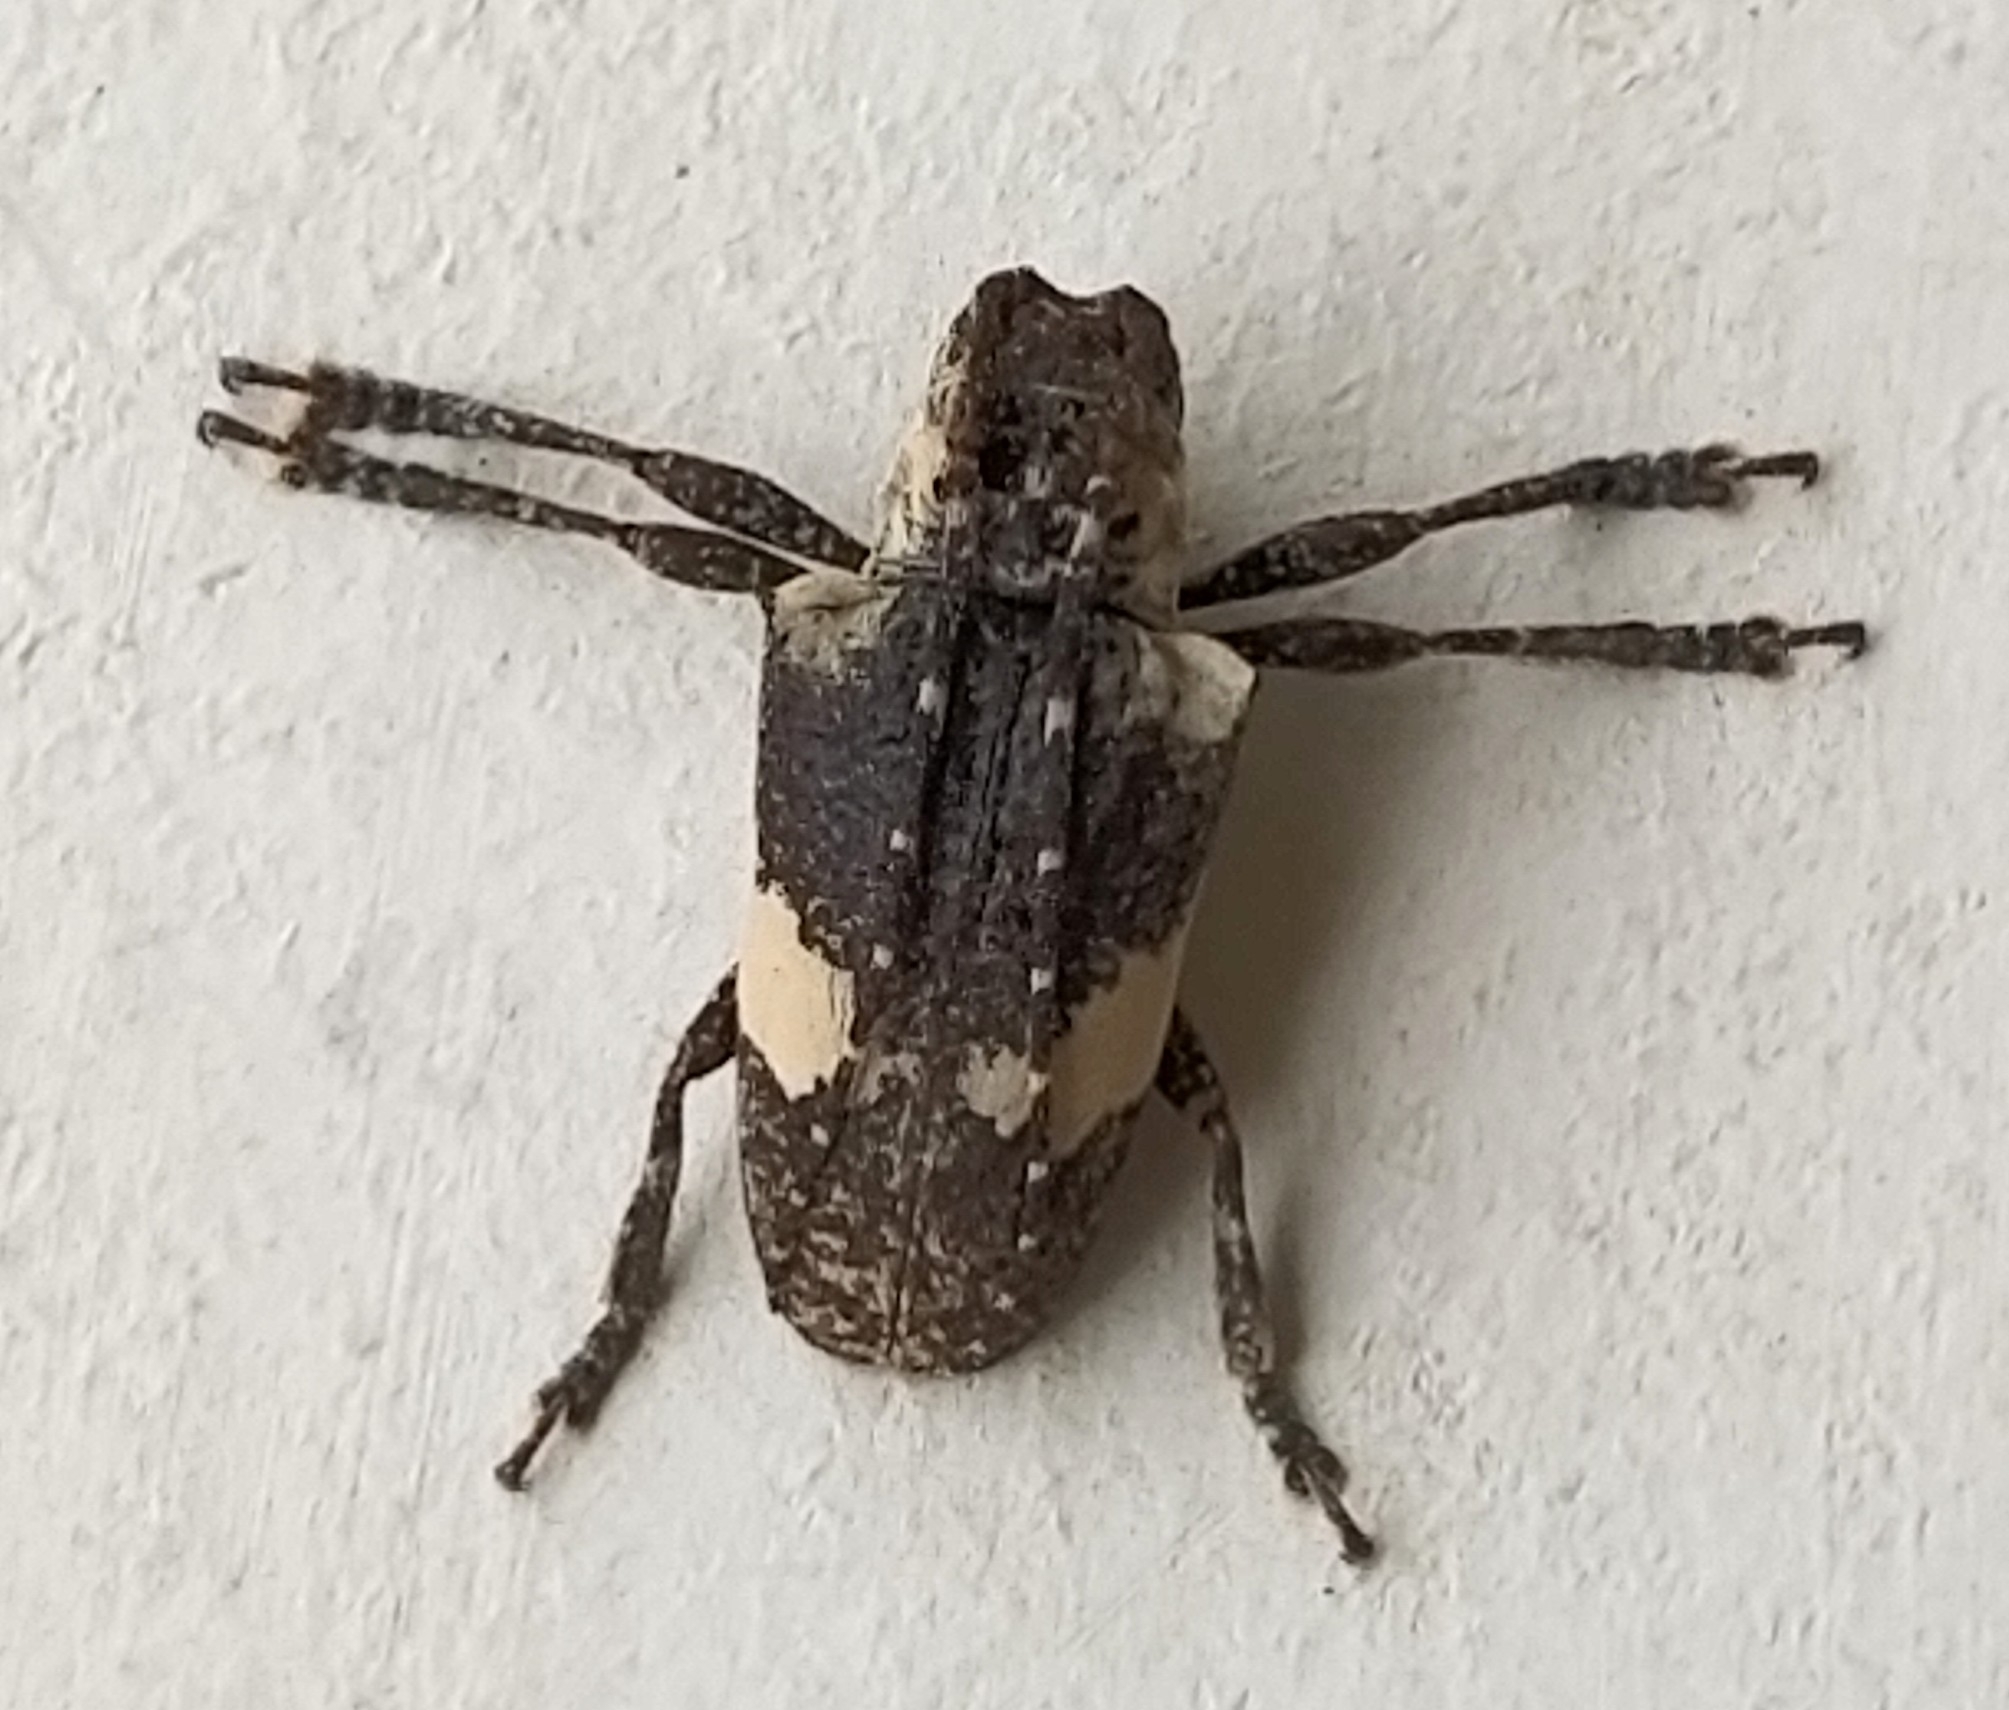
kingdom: Animalia
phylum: Arthropoda
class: Insecta
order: Coleoptera
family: Cerambycidae
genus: Cipriscola
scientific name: Cipriscola fasciata
